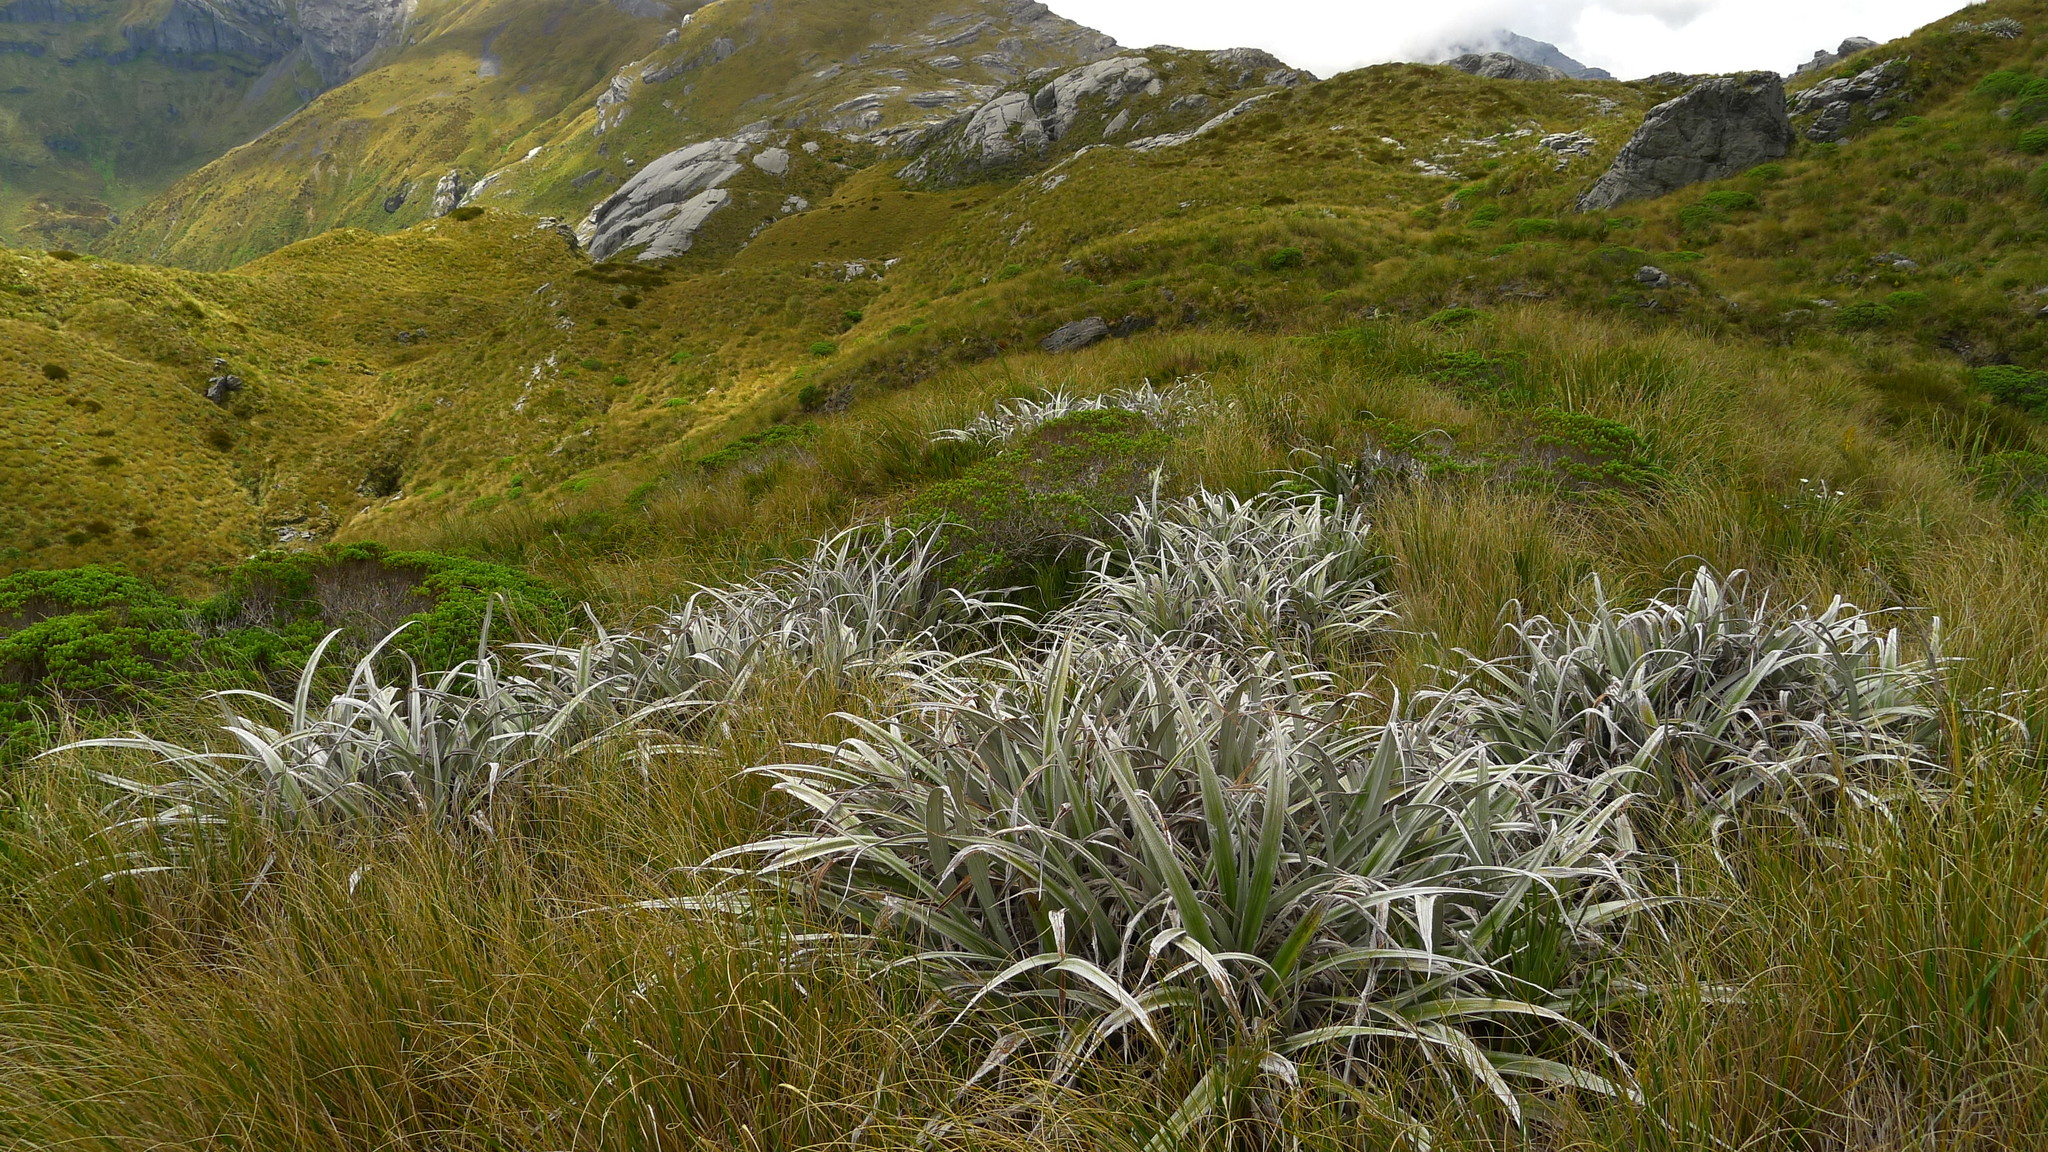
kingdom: Plantae
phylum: Tracheophyta
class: Liliopsida
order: Asparagales
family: Asteliaceae
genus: Astelia
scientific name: Astelia nervosa
